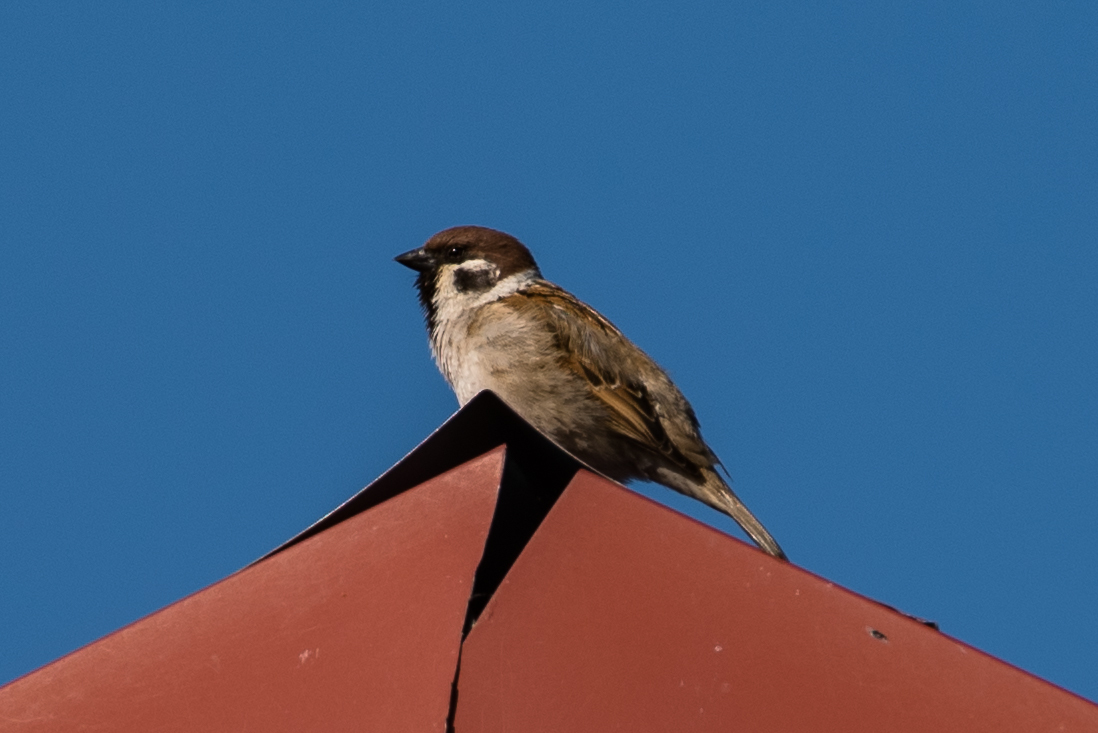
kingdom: Animalia
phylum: Chordata
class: Aves
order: Passeriformes
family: Passeridae
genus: Passer
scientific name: Passer montanus
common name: Eurasian tree sparrow
